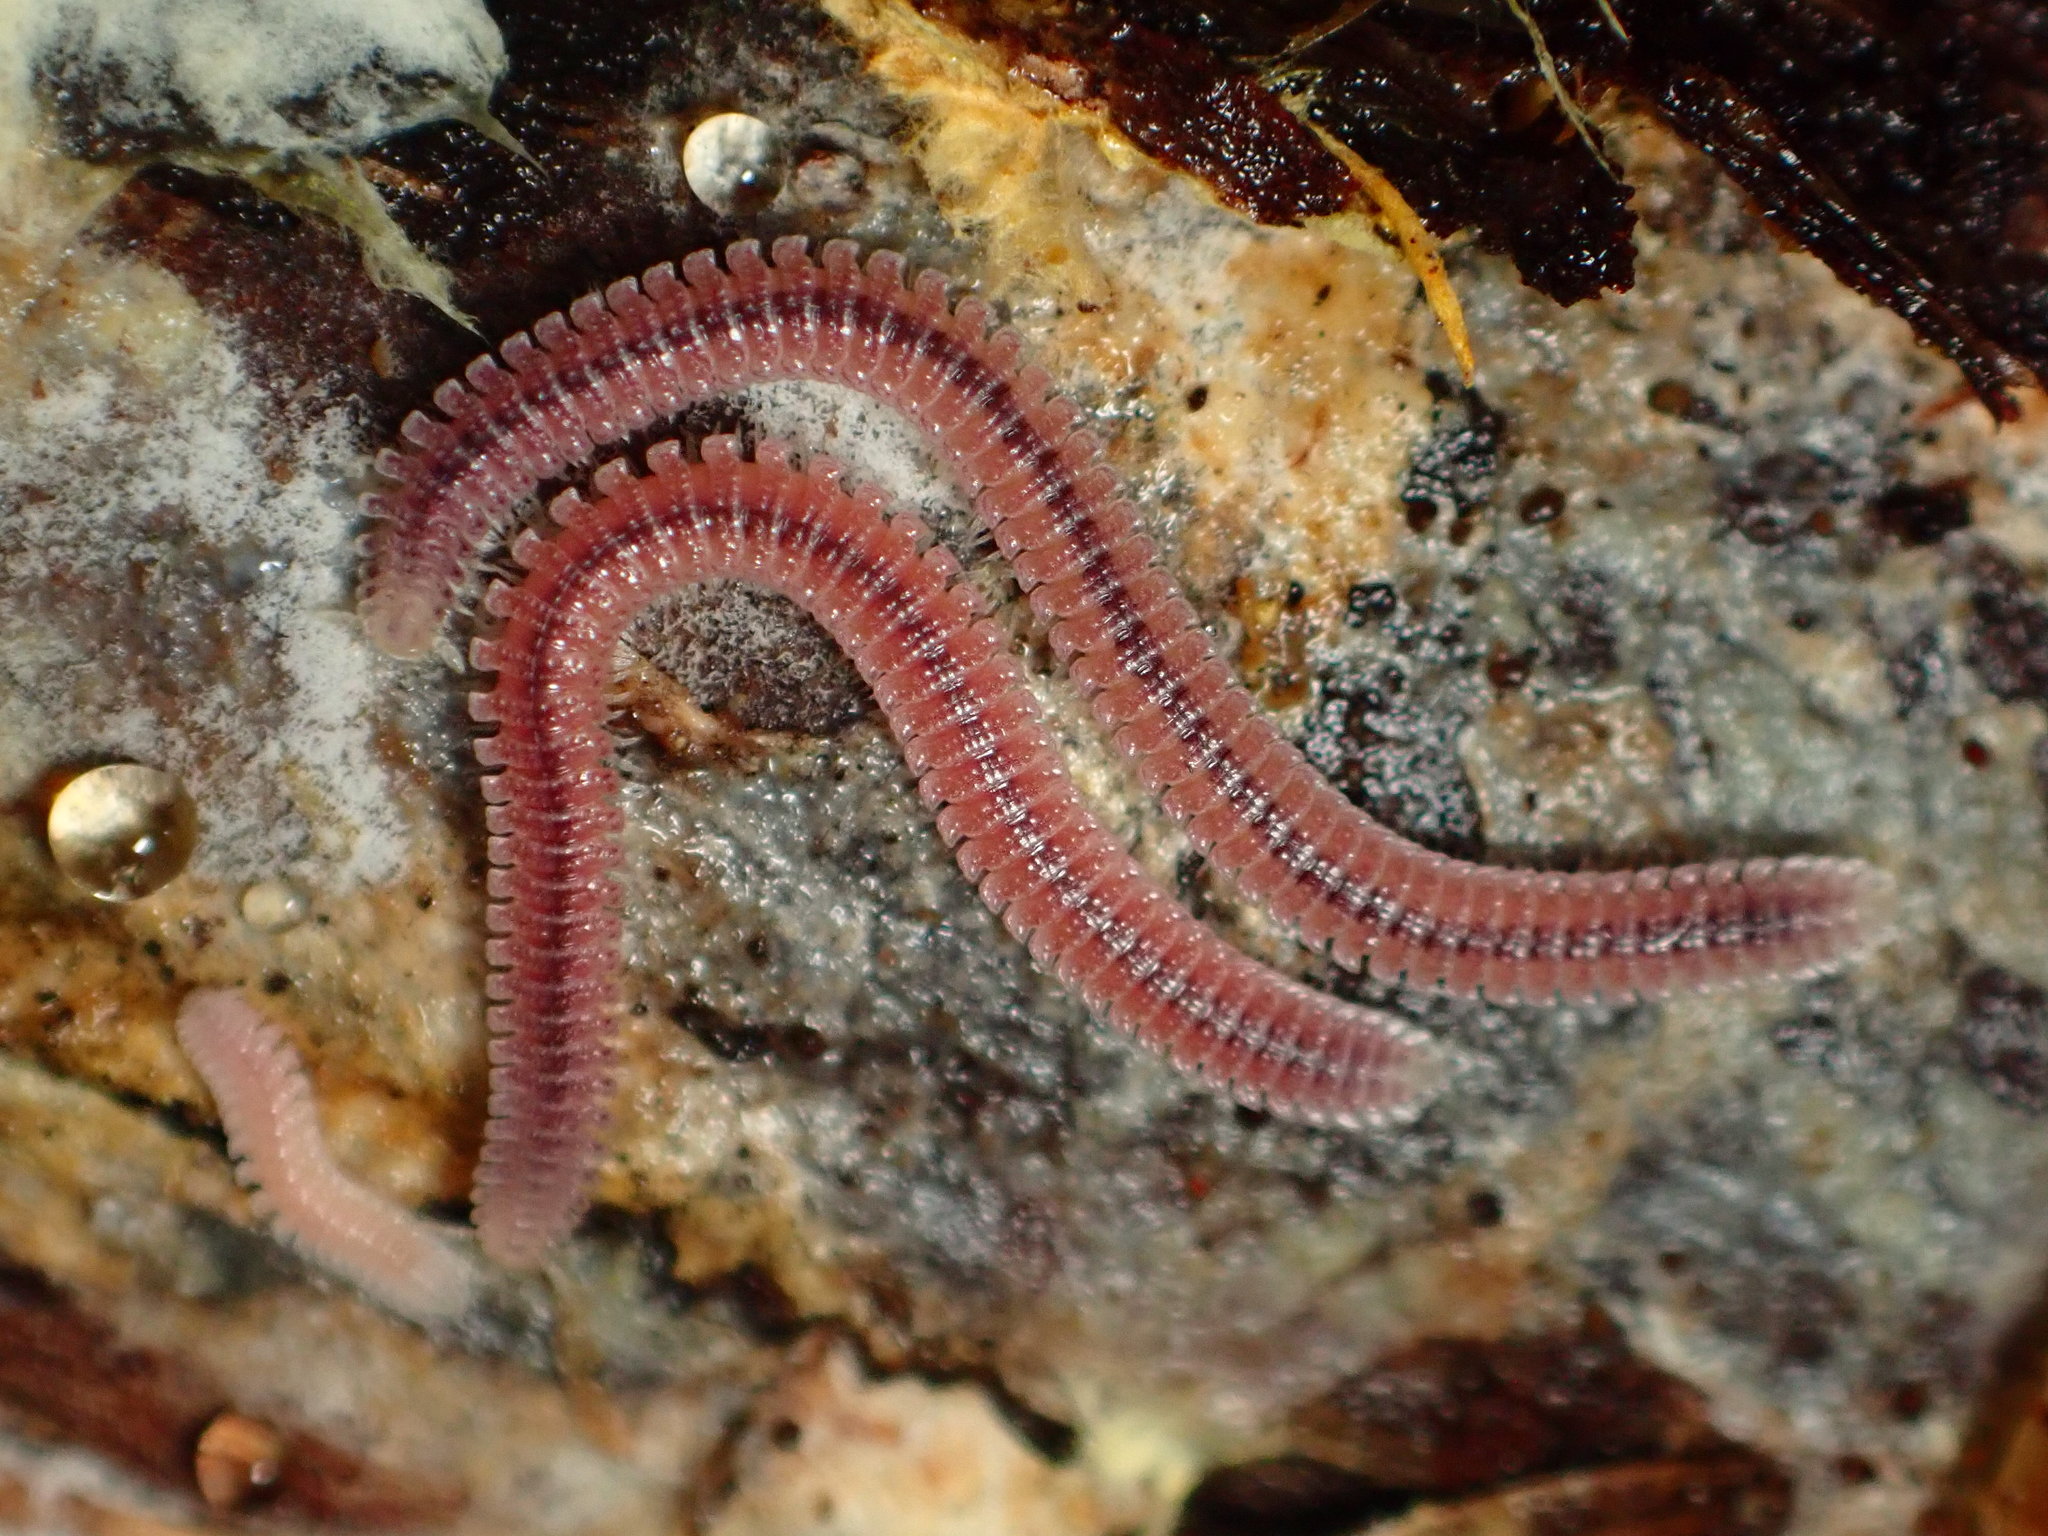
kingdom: Animalia
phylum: Arthropoda
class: Diplopoda
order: Platydesmida
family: Andrognathidae
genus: Gosodesmus
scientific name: Gosodesmus claremontus
